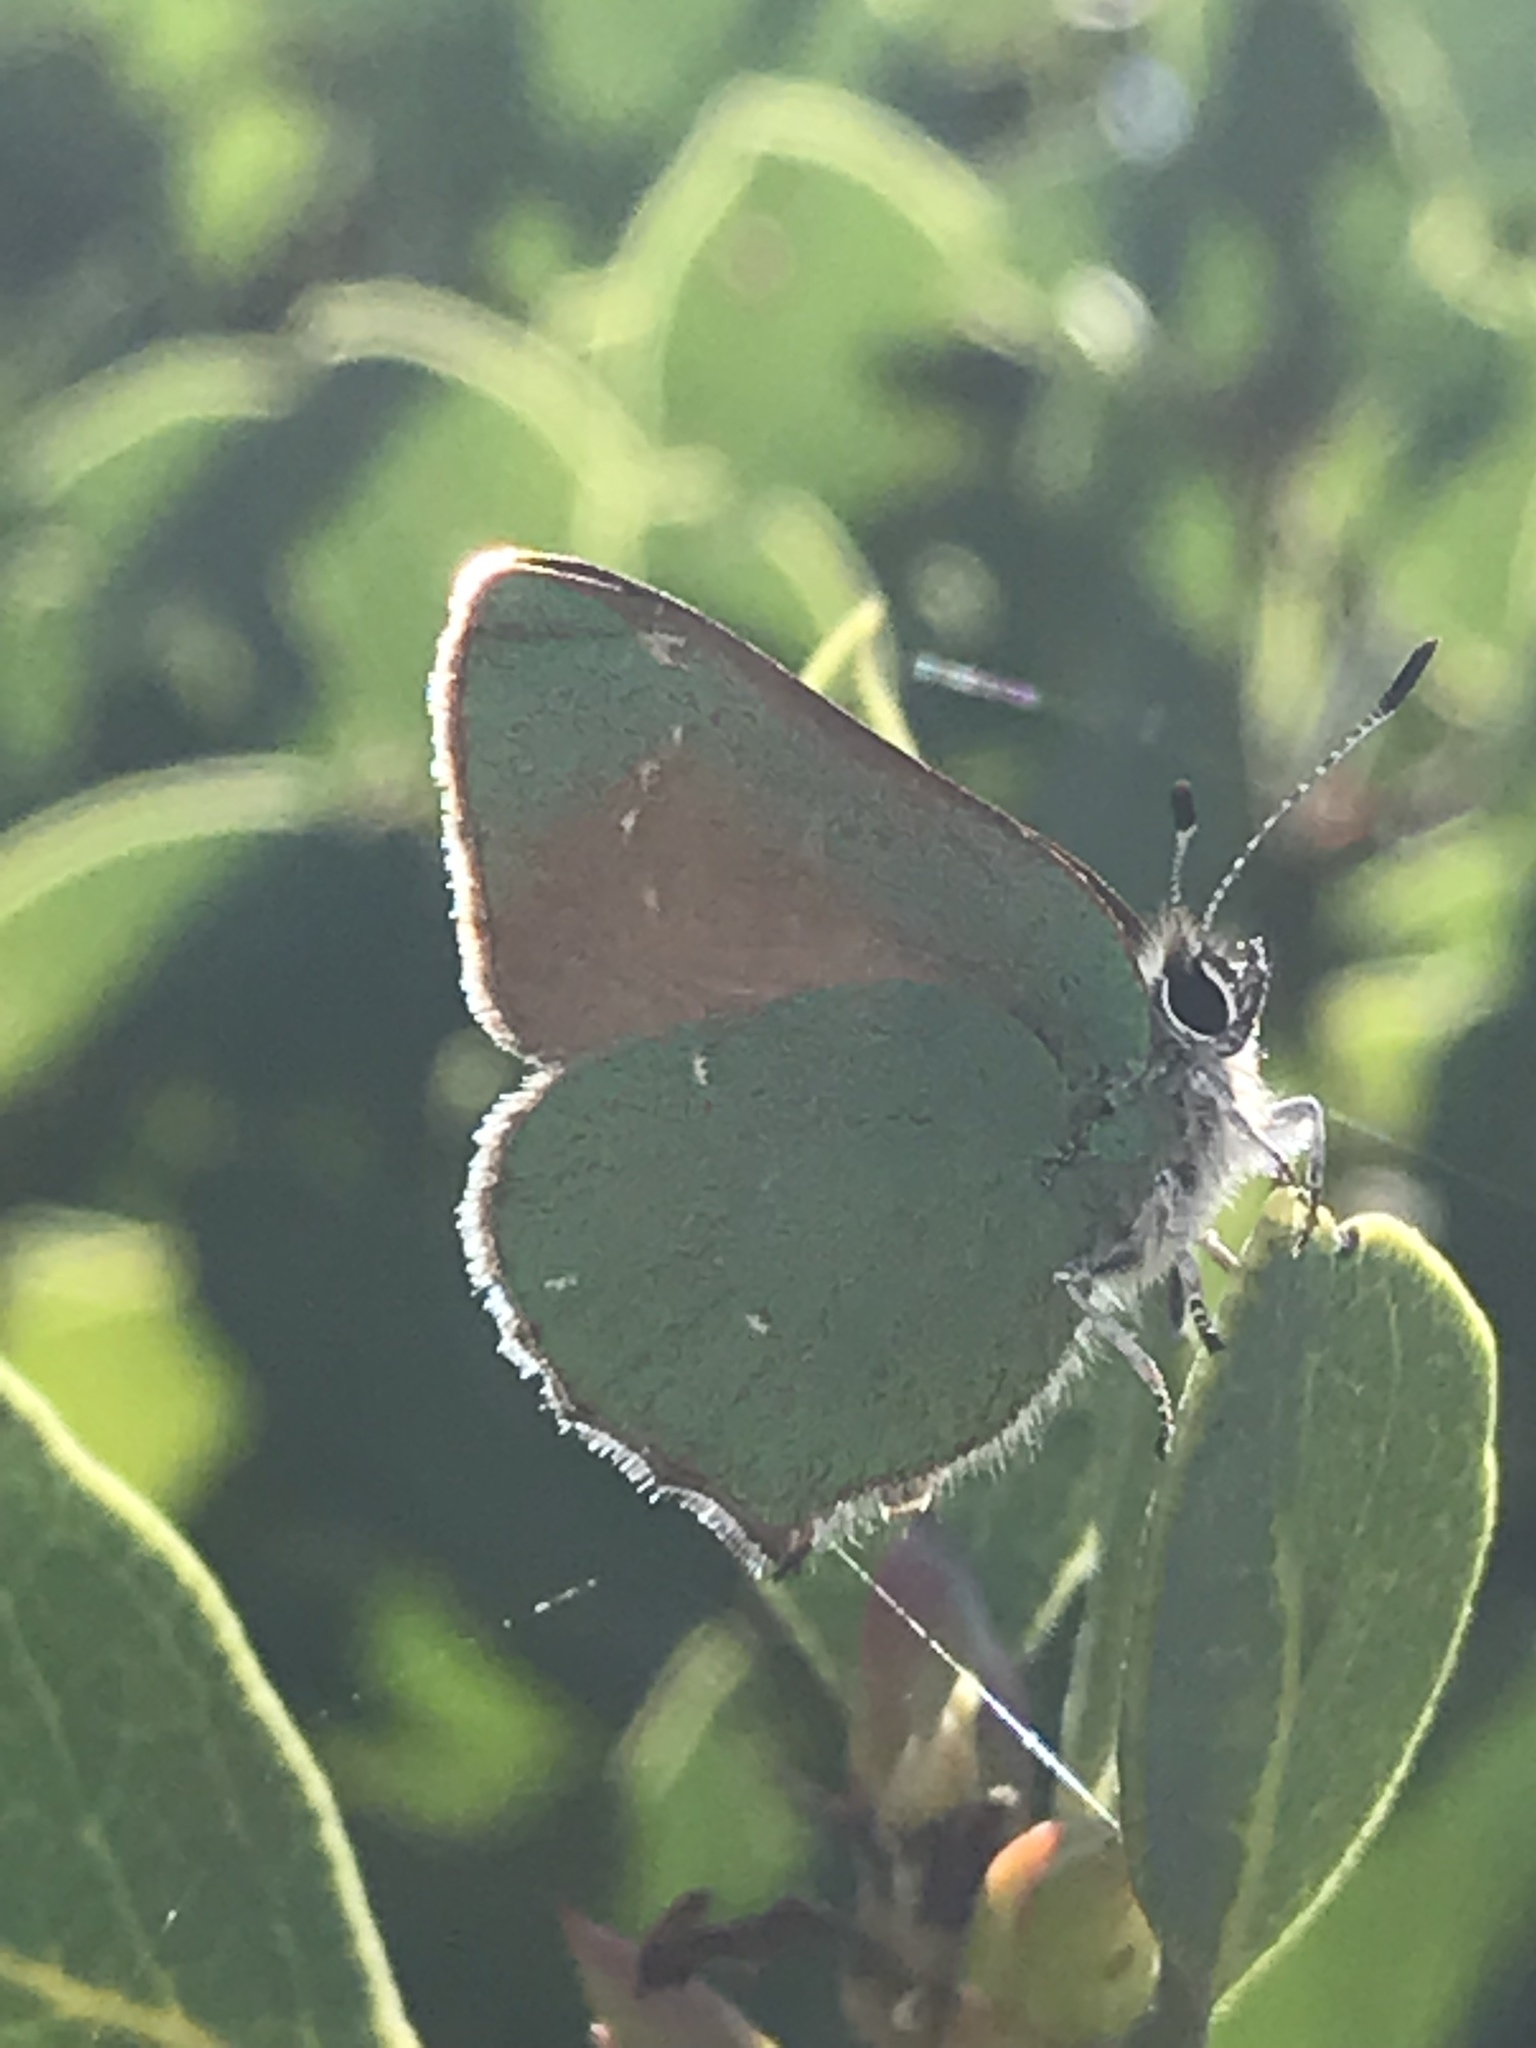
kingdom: Animalia
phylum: Arthropoda
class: Insecta
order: Lepidoptera
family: Lycaenidae
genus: Callophrys
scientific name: Callophrys dumetorum
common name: Bramble hairstreak
